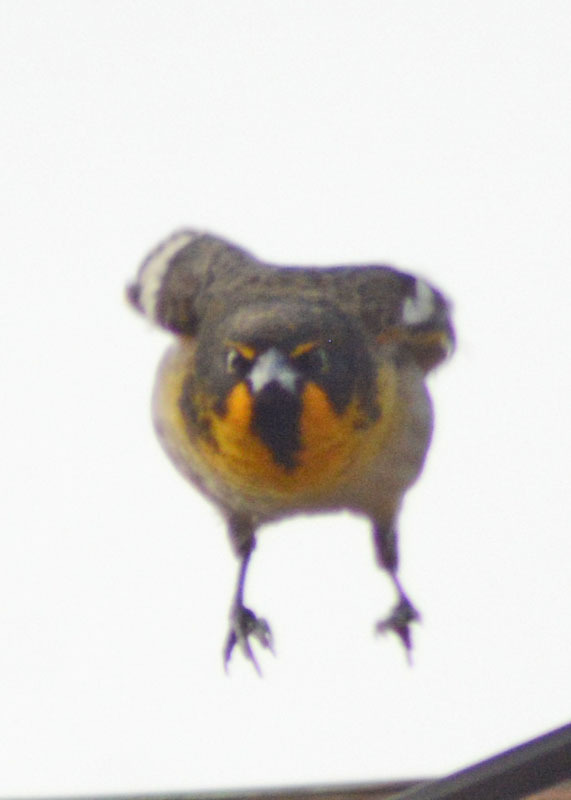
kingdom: Animalia
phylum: Chordata
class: Aves
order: Passeriformes
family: Icteridae
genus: Icterus
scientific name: Icterus abeillei
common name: Black-backed oriole
